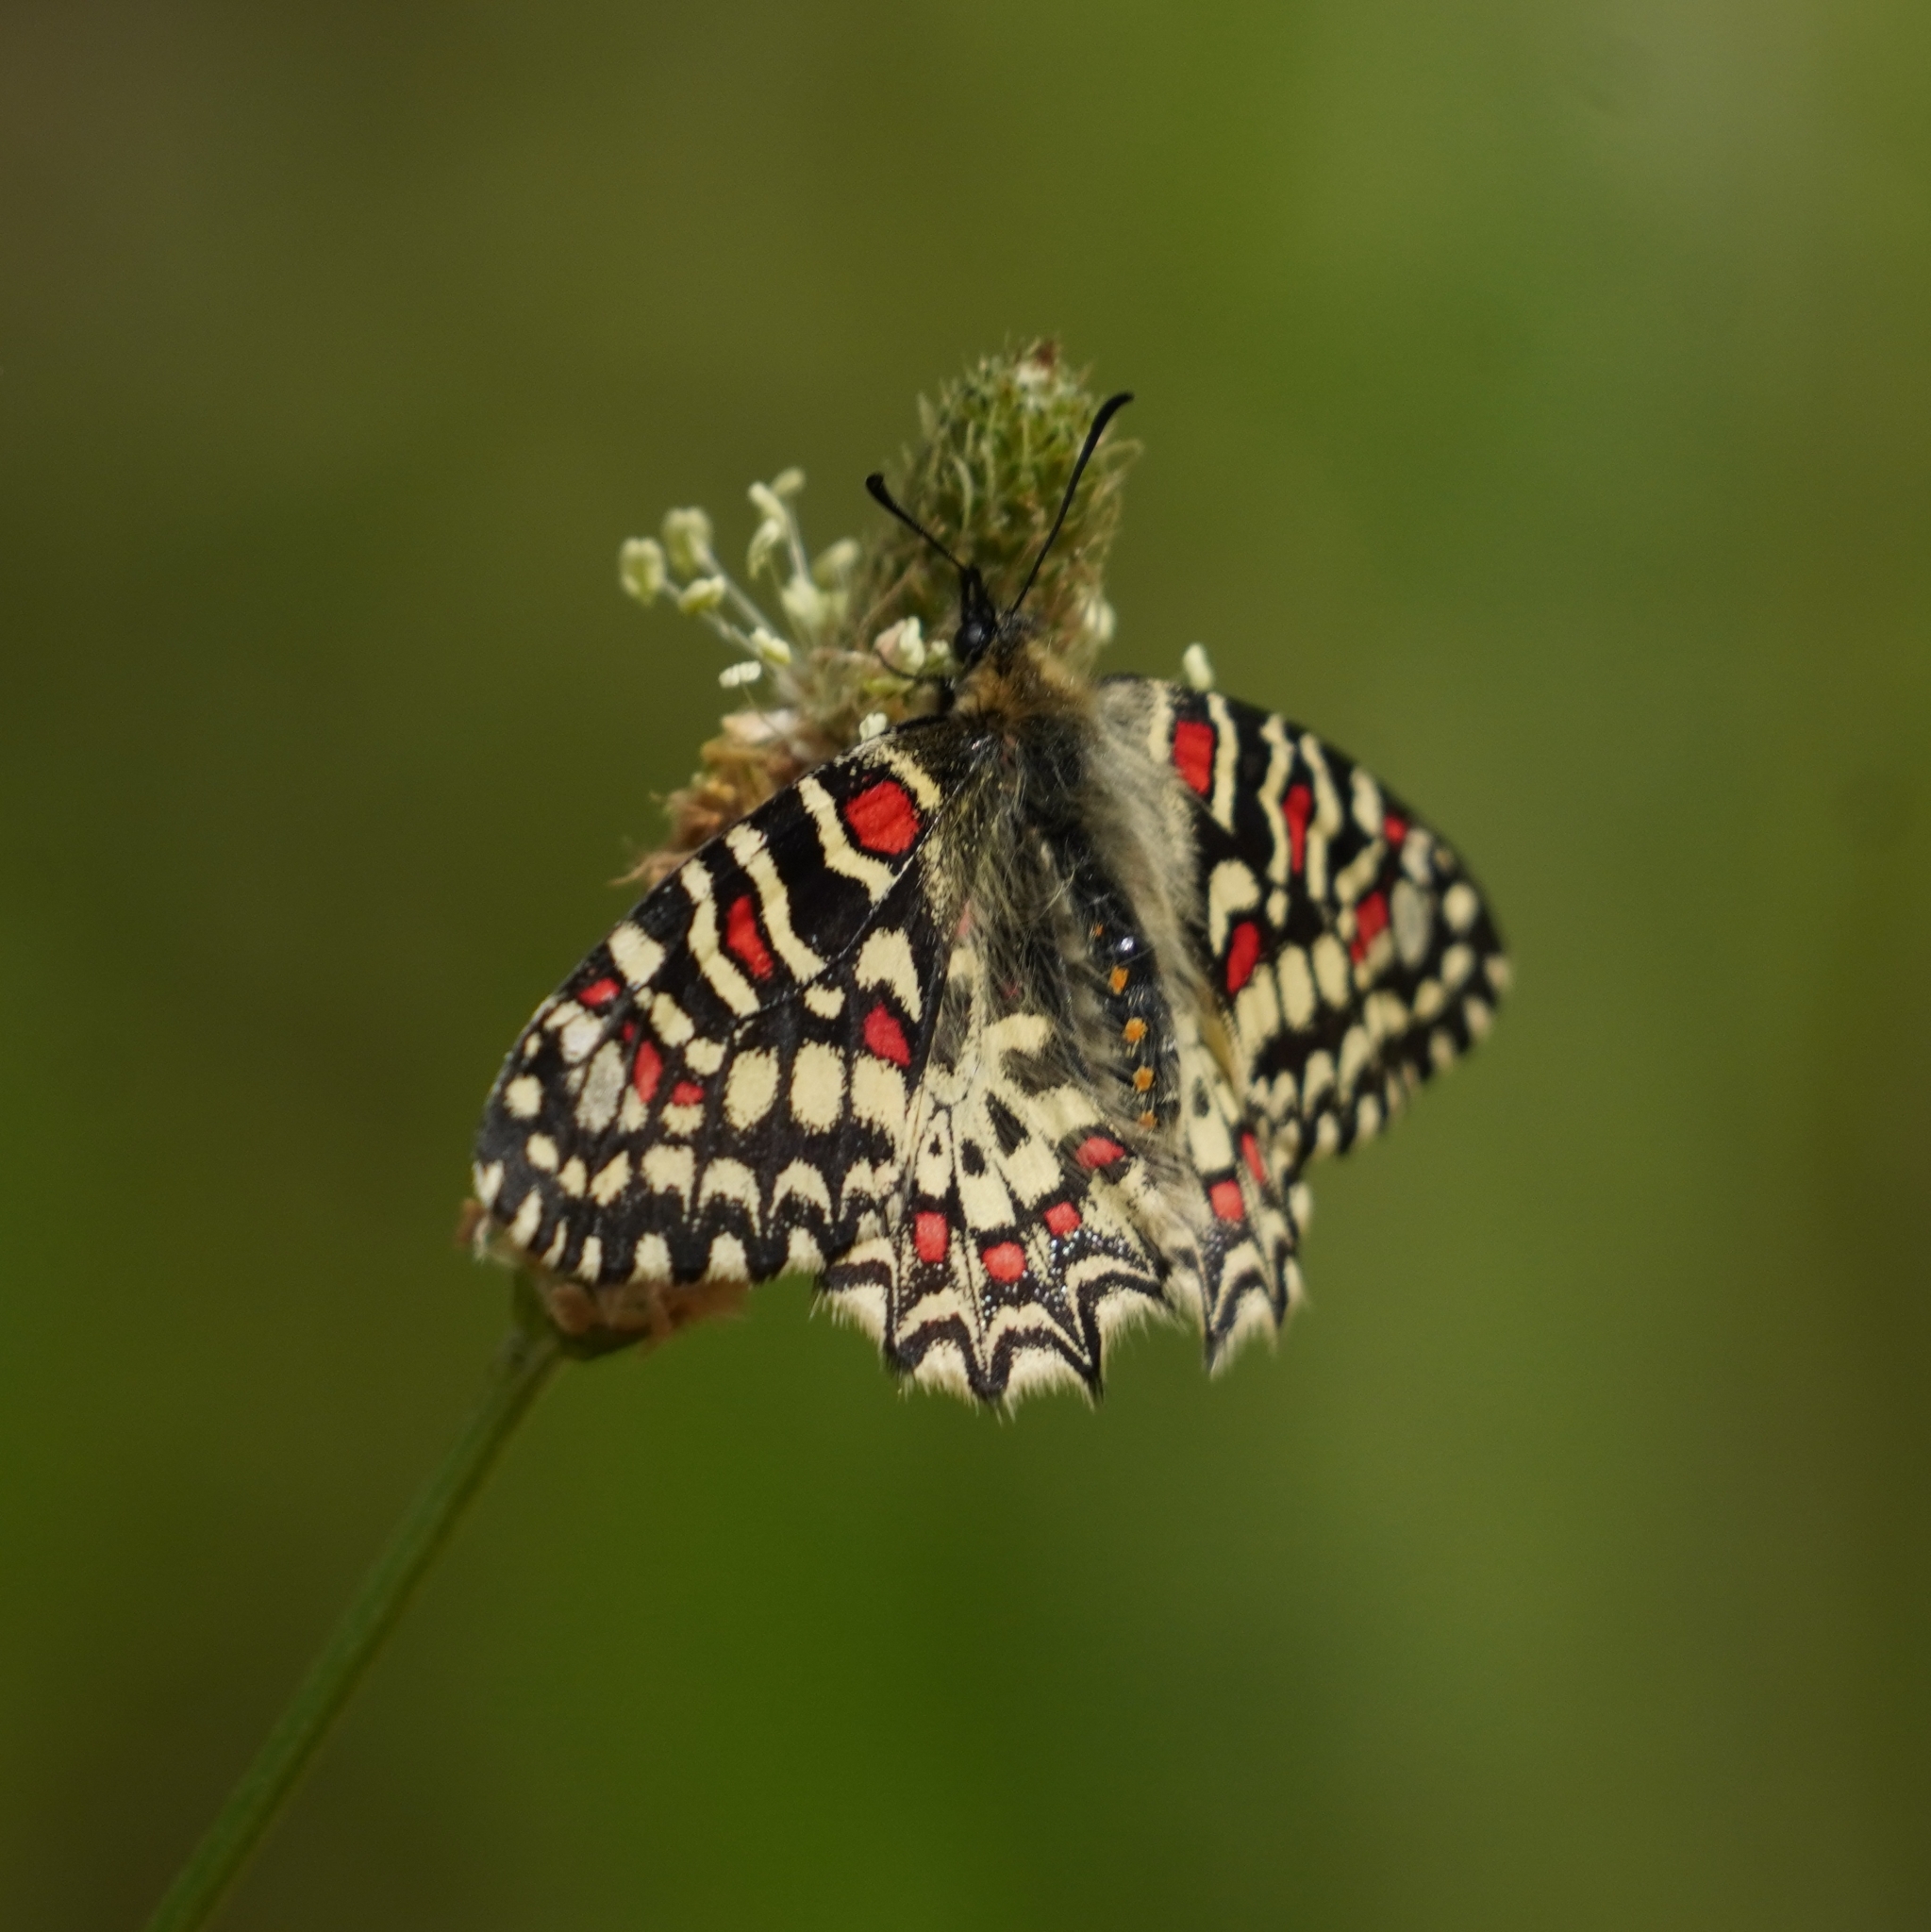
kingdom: Animalia
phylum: Arthropoda
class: Insecta
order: Lepidoptera
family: Papilionidae
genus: Zerynthia
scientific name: Zerynthia rumina
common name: Spanish festoon
